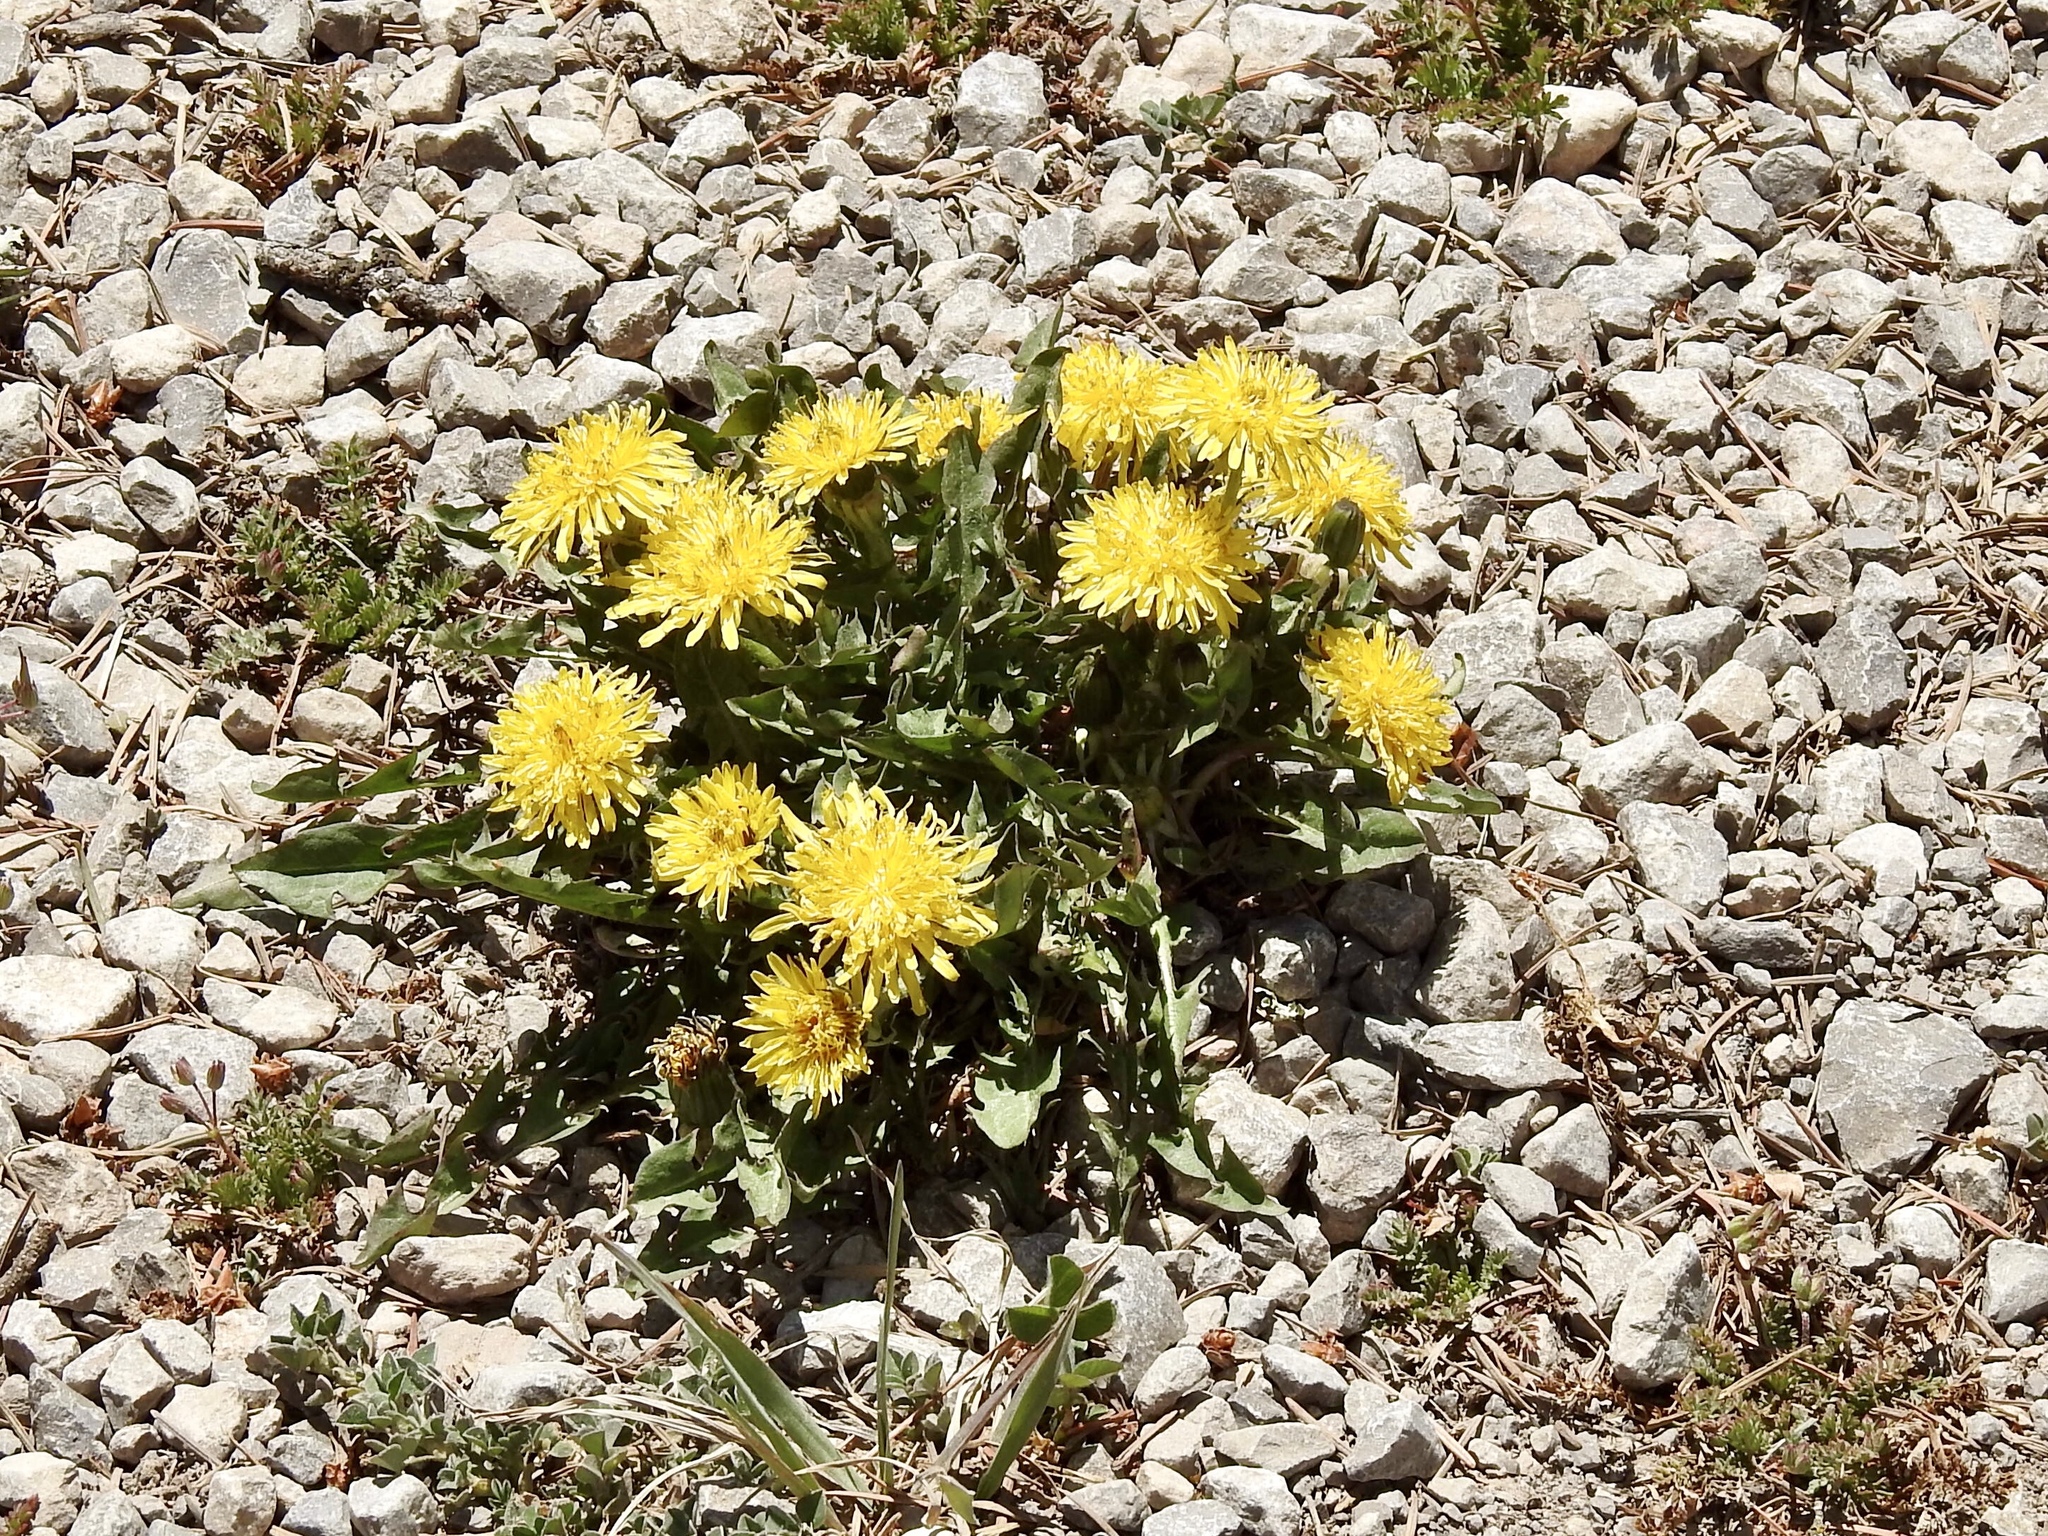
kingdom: Plantae
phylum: Tracheophyta
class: Magnoliopsida
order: Asterales
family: Asteraceae
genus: Taraxacum
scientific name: Taraxacum officinale
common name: Common dandelion
